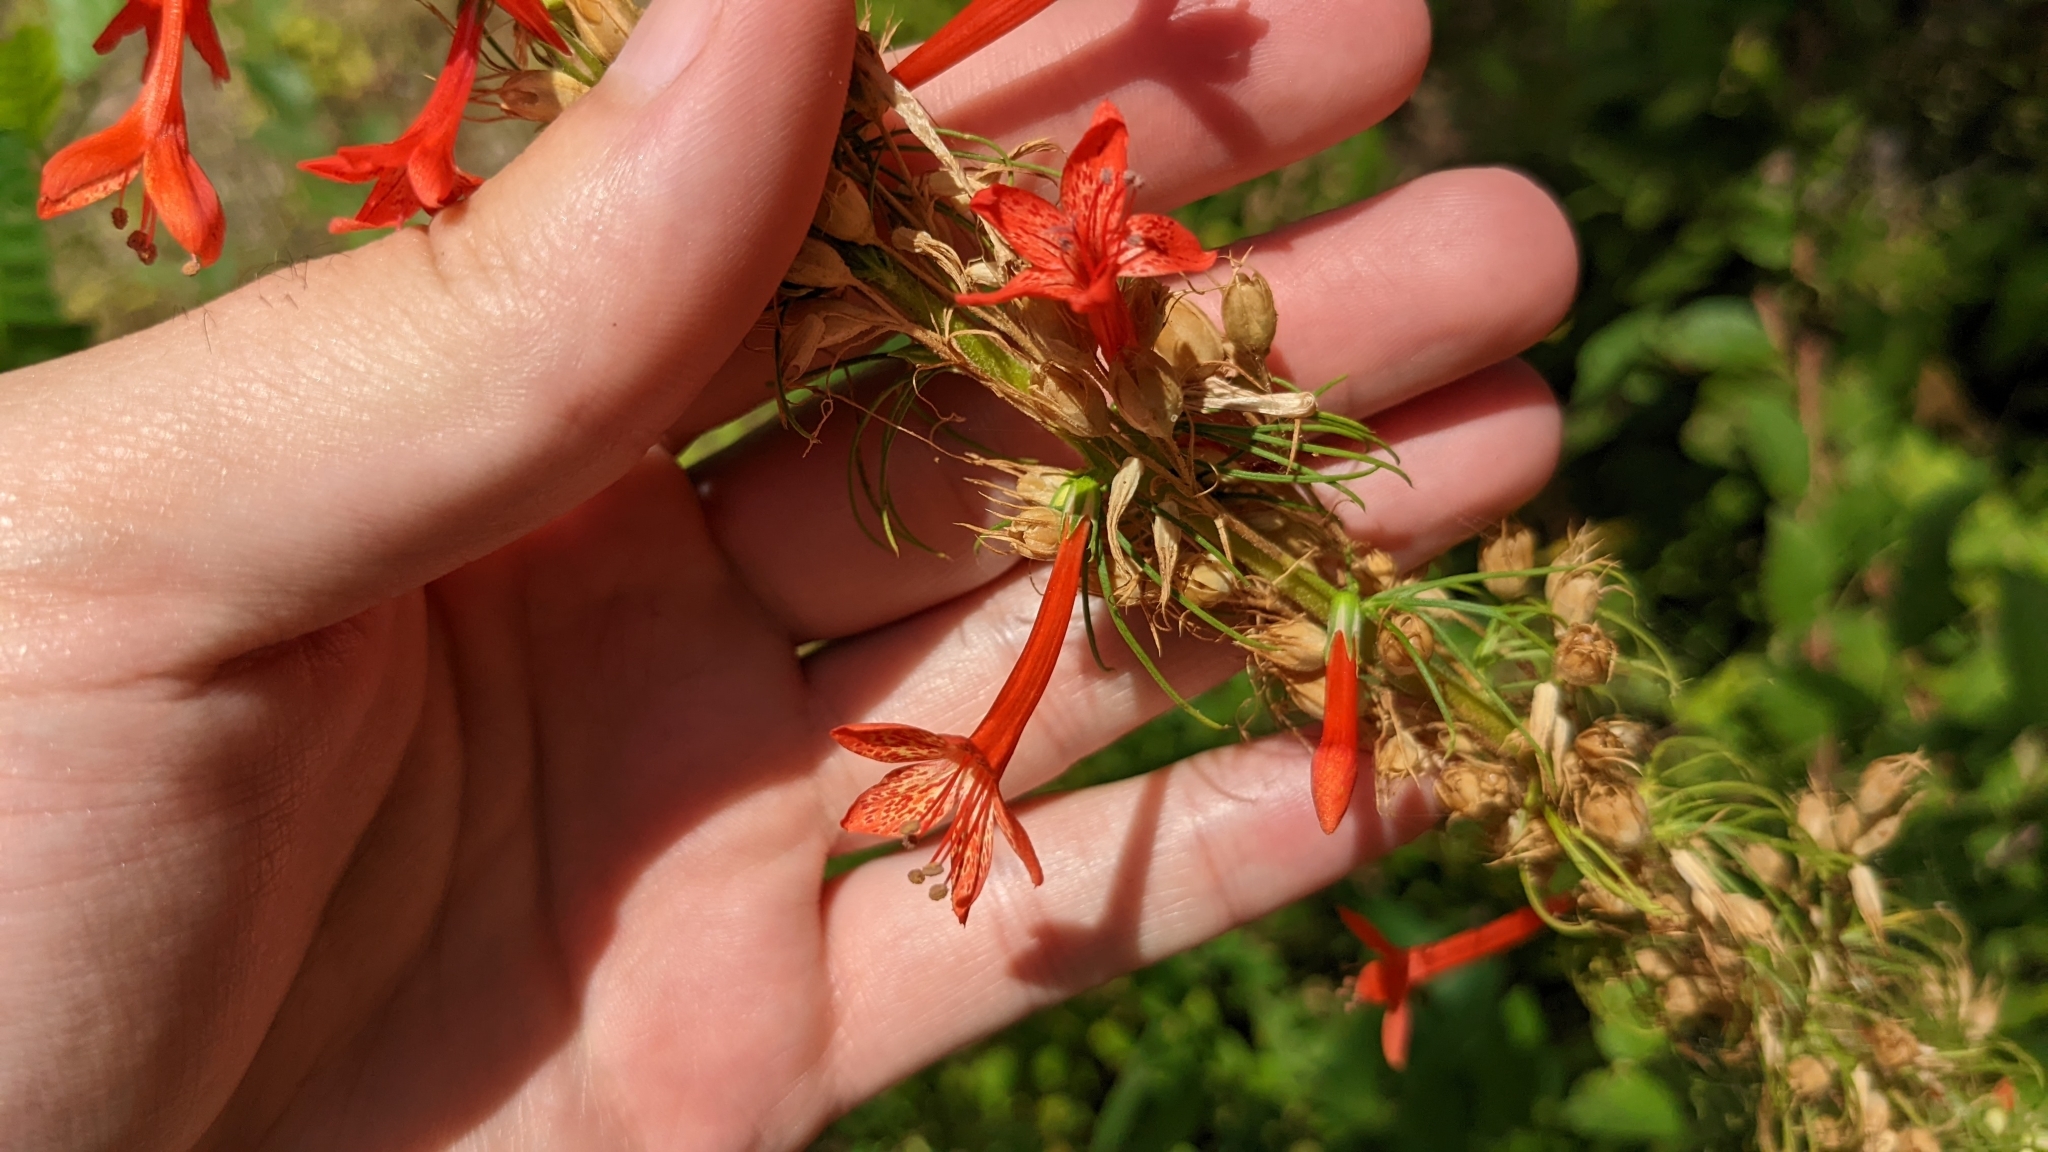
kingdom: Plantae
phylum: Tracheophyta
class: Magnoliopsida
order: Ericales
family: Polemoniaceae
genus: Ipomopsis
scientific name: Ipomopsis rubra
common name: Skyrocket
